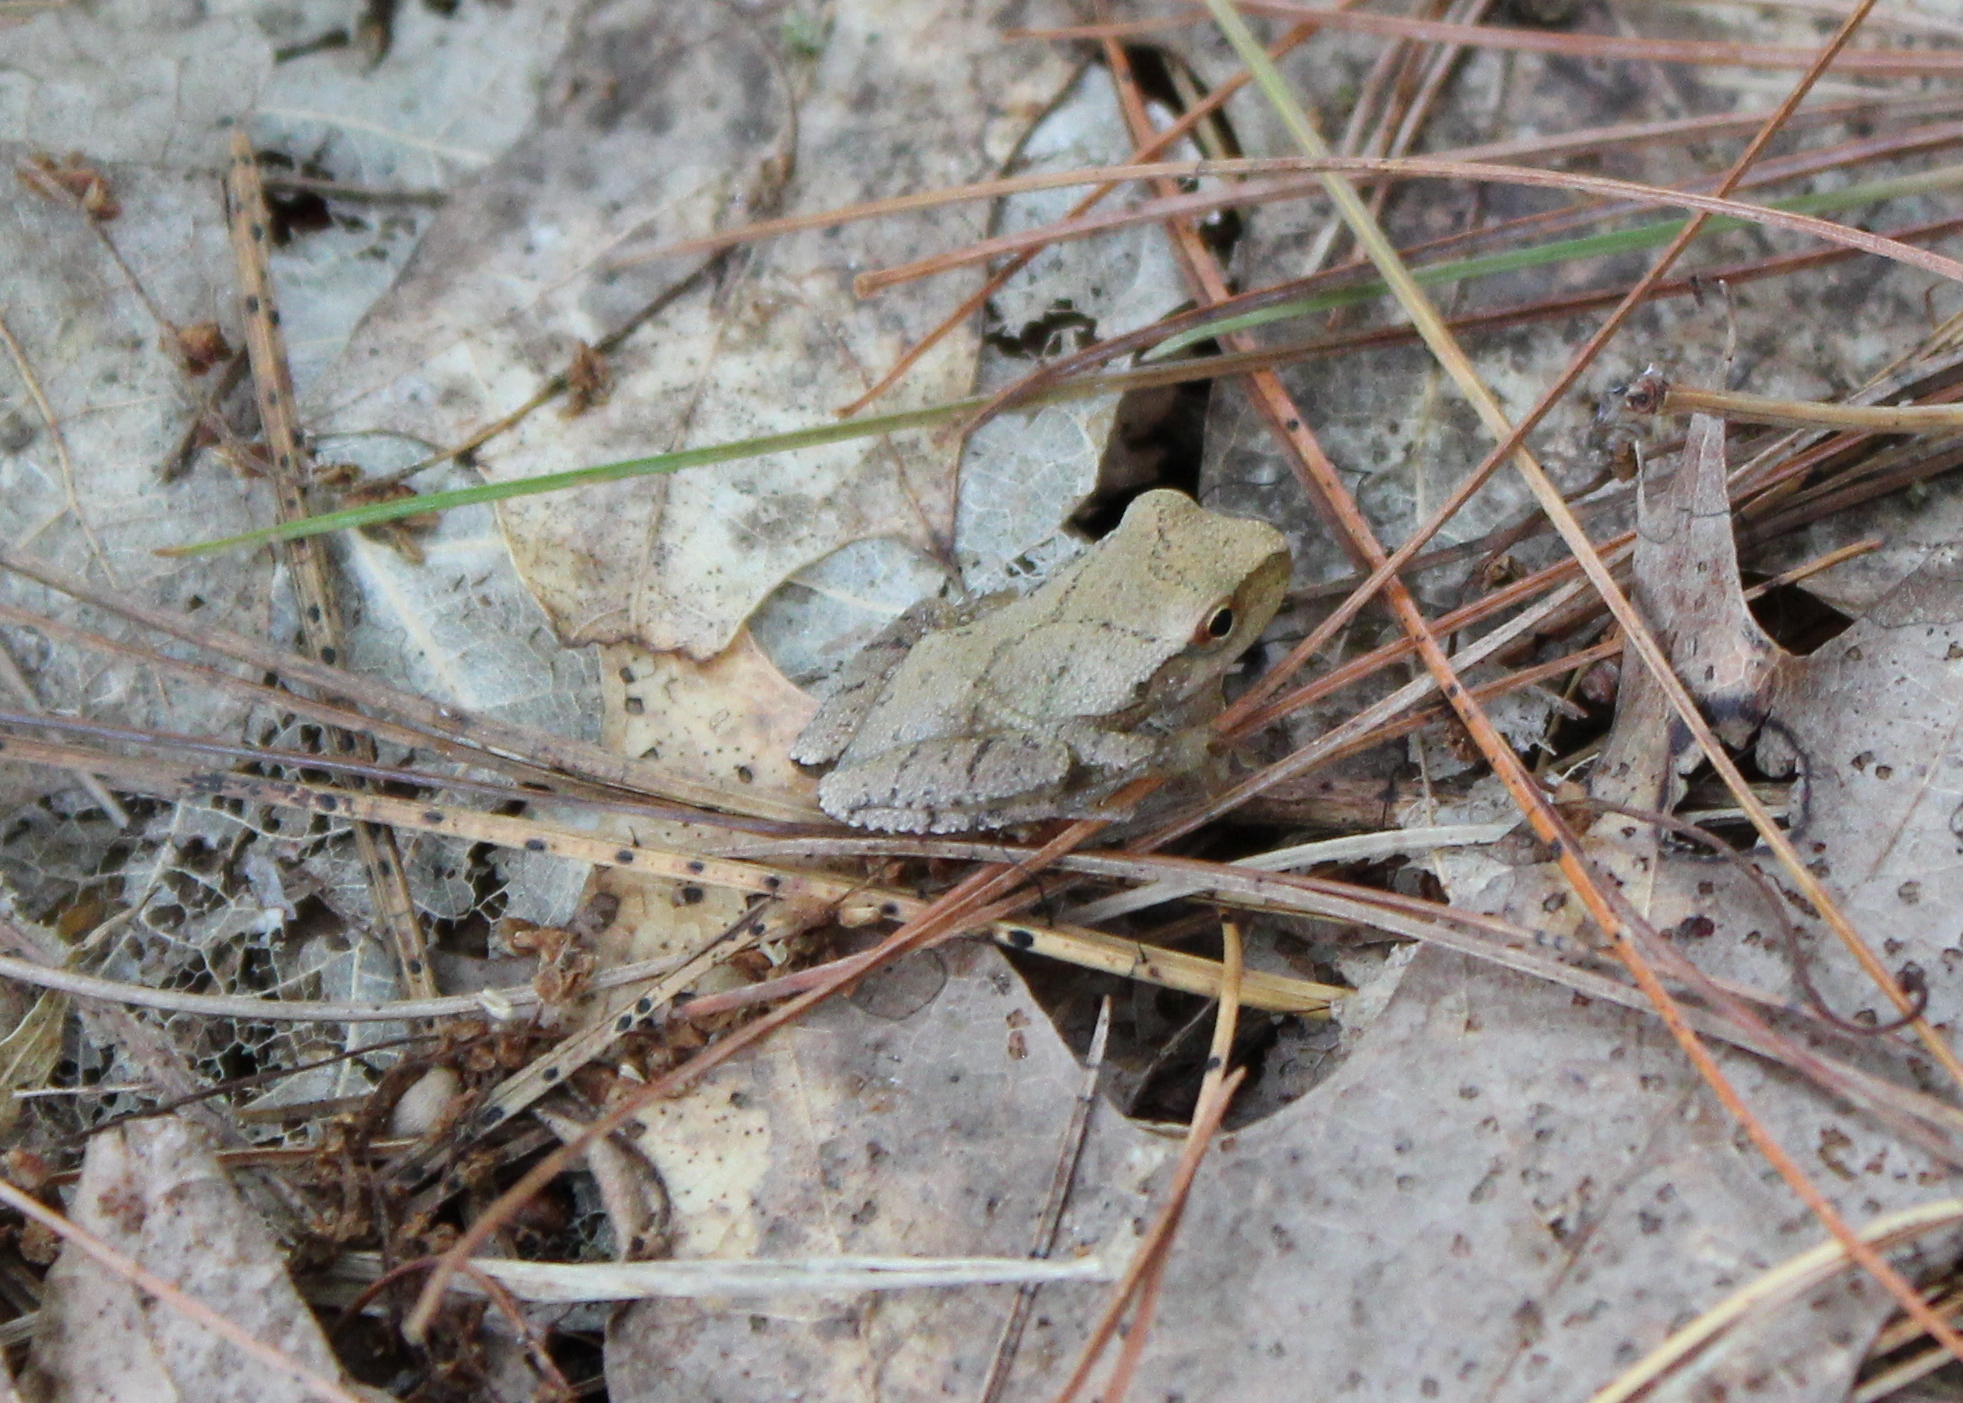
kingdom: Animalia
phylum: Chordata
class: Amphibia
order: Anura
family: Hylidae
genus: Pseudacris
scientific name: Pseudacris crucifer
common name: Spring peeper
